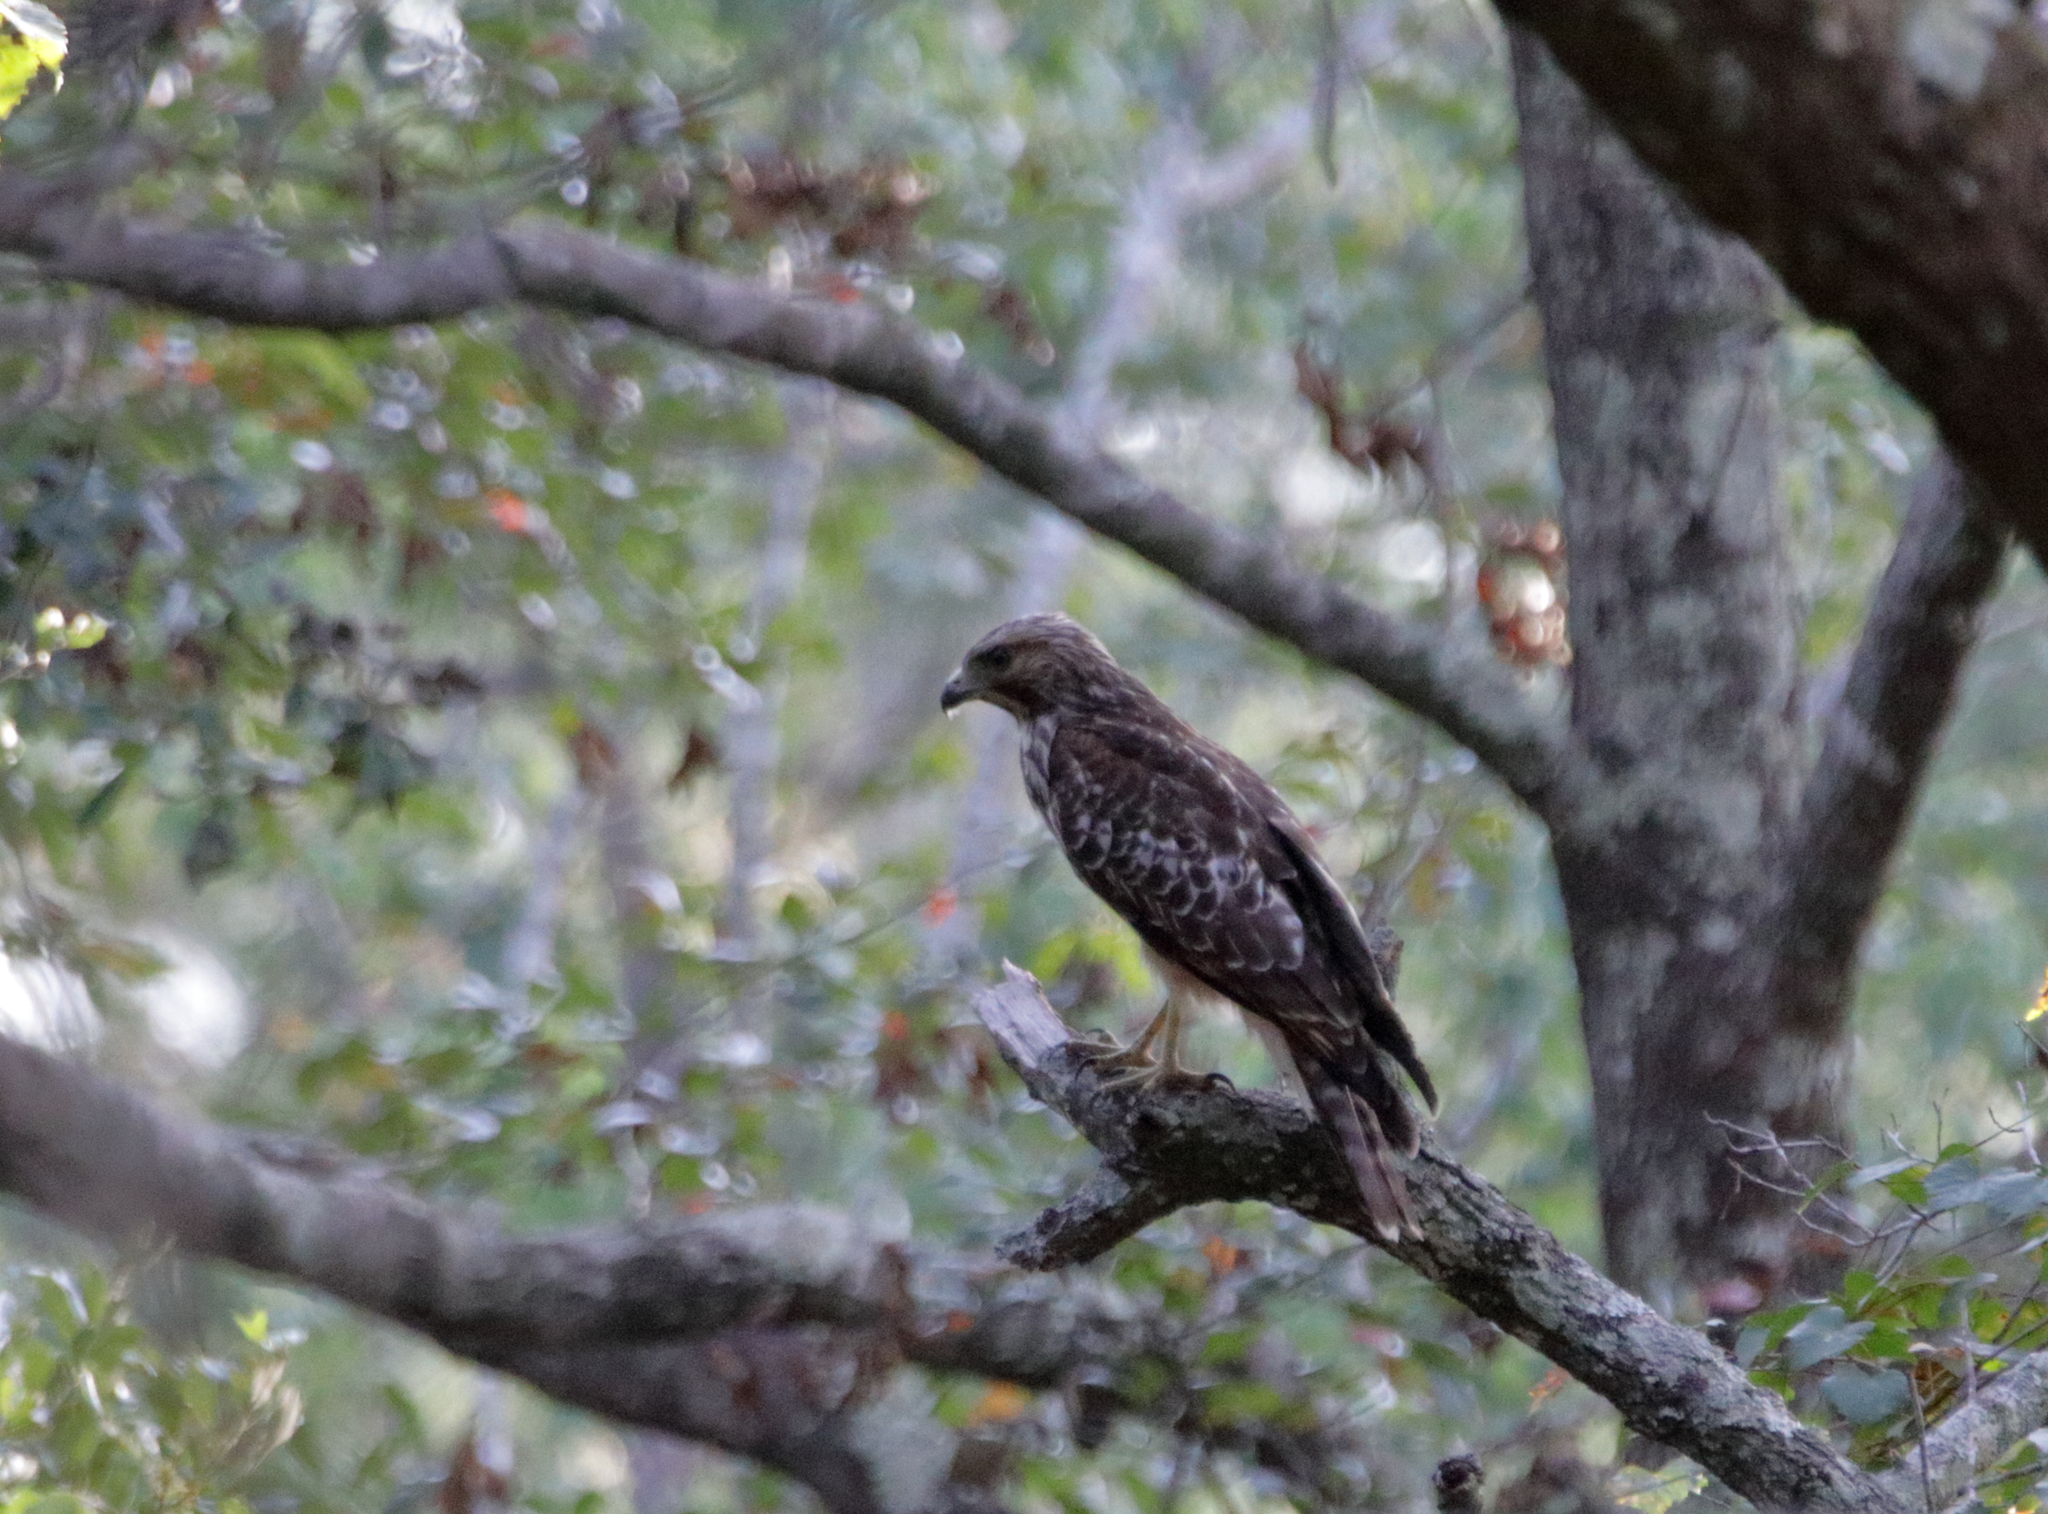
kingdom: Animalia
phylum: Chordata
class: Aves
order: Accipitriformes
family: Accipitridae
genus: Buteo
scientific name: Buteo lineatus
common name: Red-shouldered hawk
